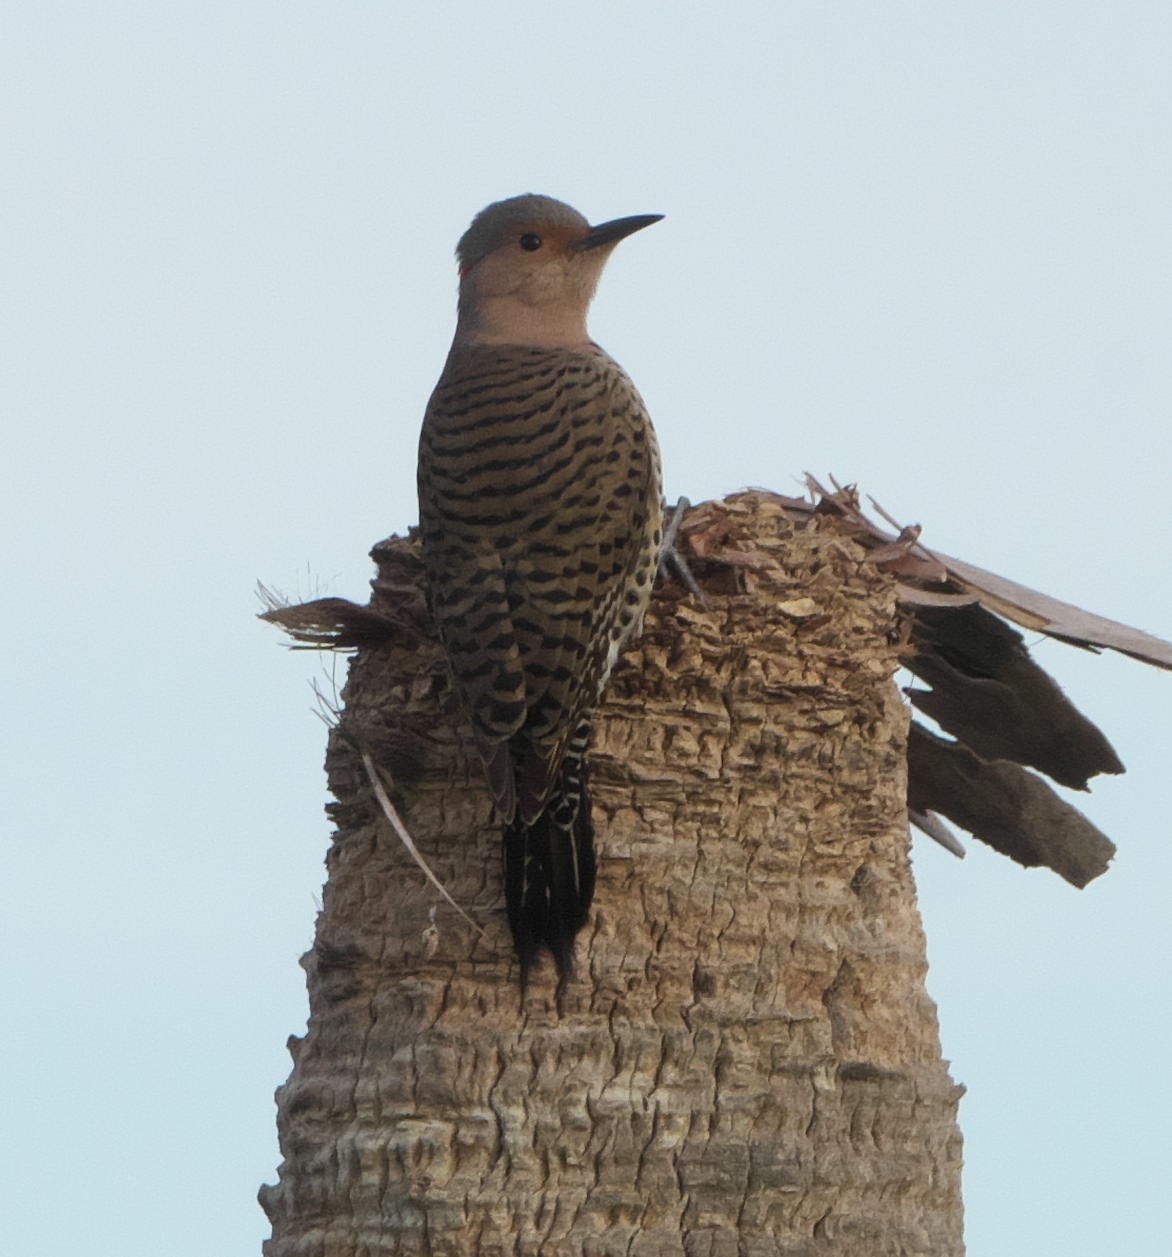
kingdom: Animalia
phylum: Chordata
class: Aves
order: Piciformes
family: Picidae
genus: Colaptes
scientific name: Colaptes auratus
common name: Northern flicker
